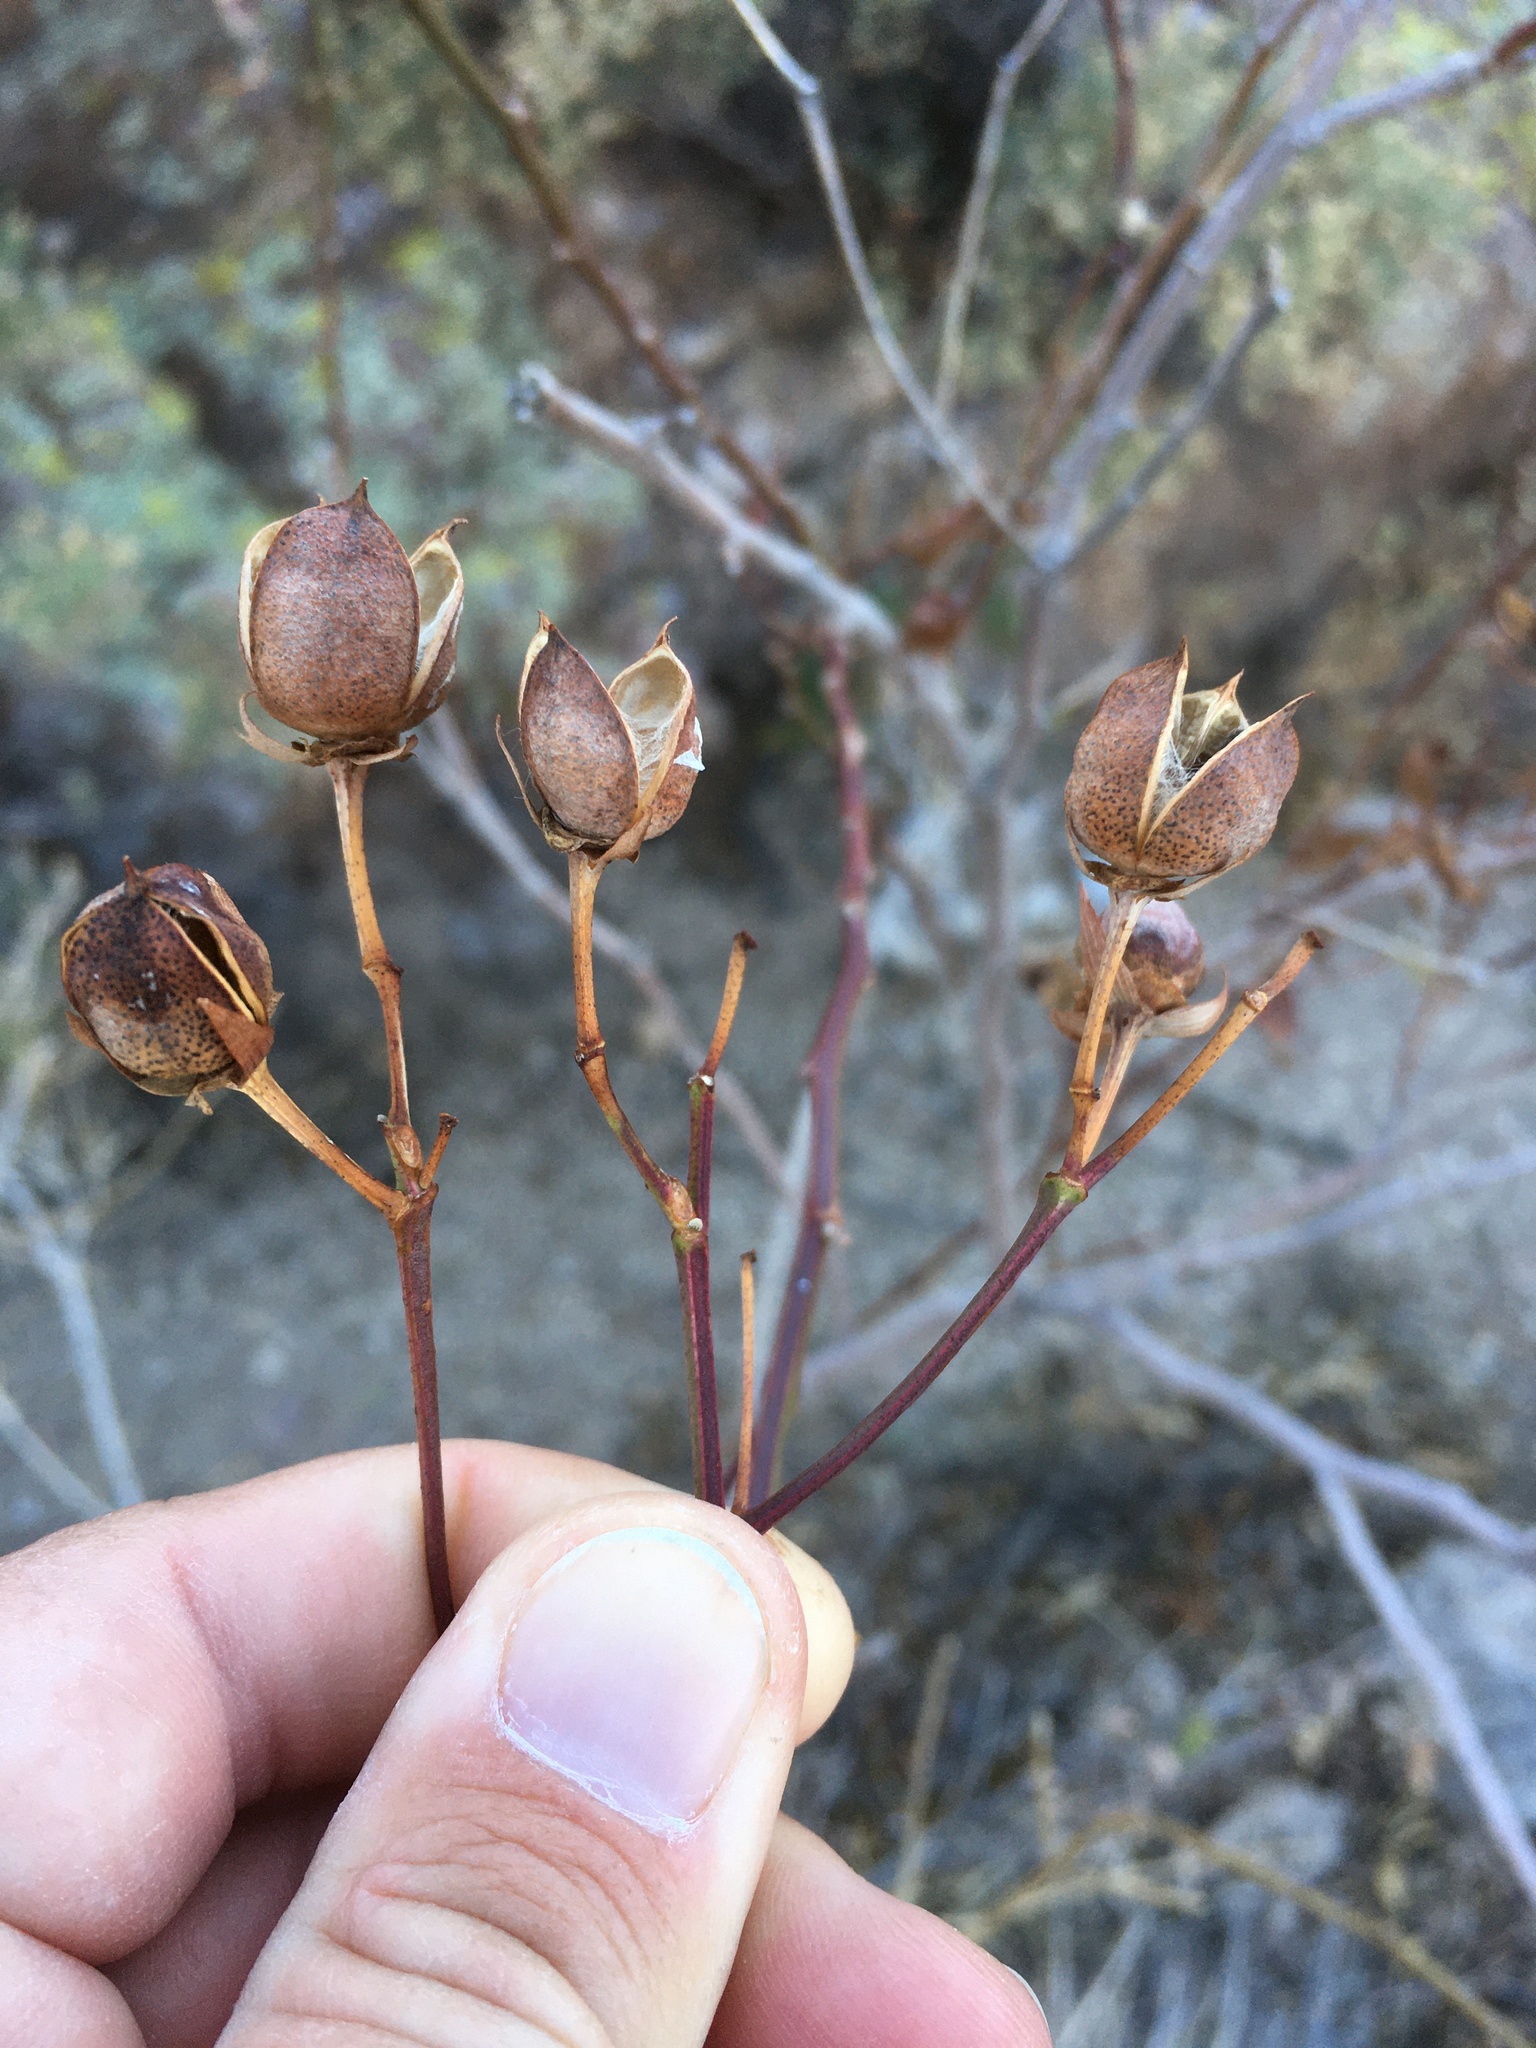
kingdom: Plantae
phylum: Tracheophyta
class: Magnoliopsida
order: Malvales
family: Malvaceae
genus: Gossypium
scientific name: Gossypium thurberi
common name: Desert cotton
